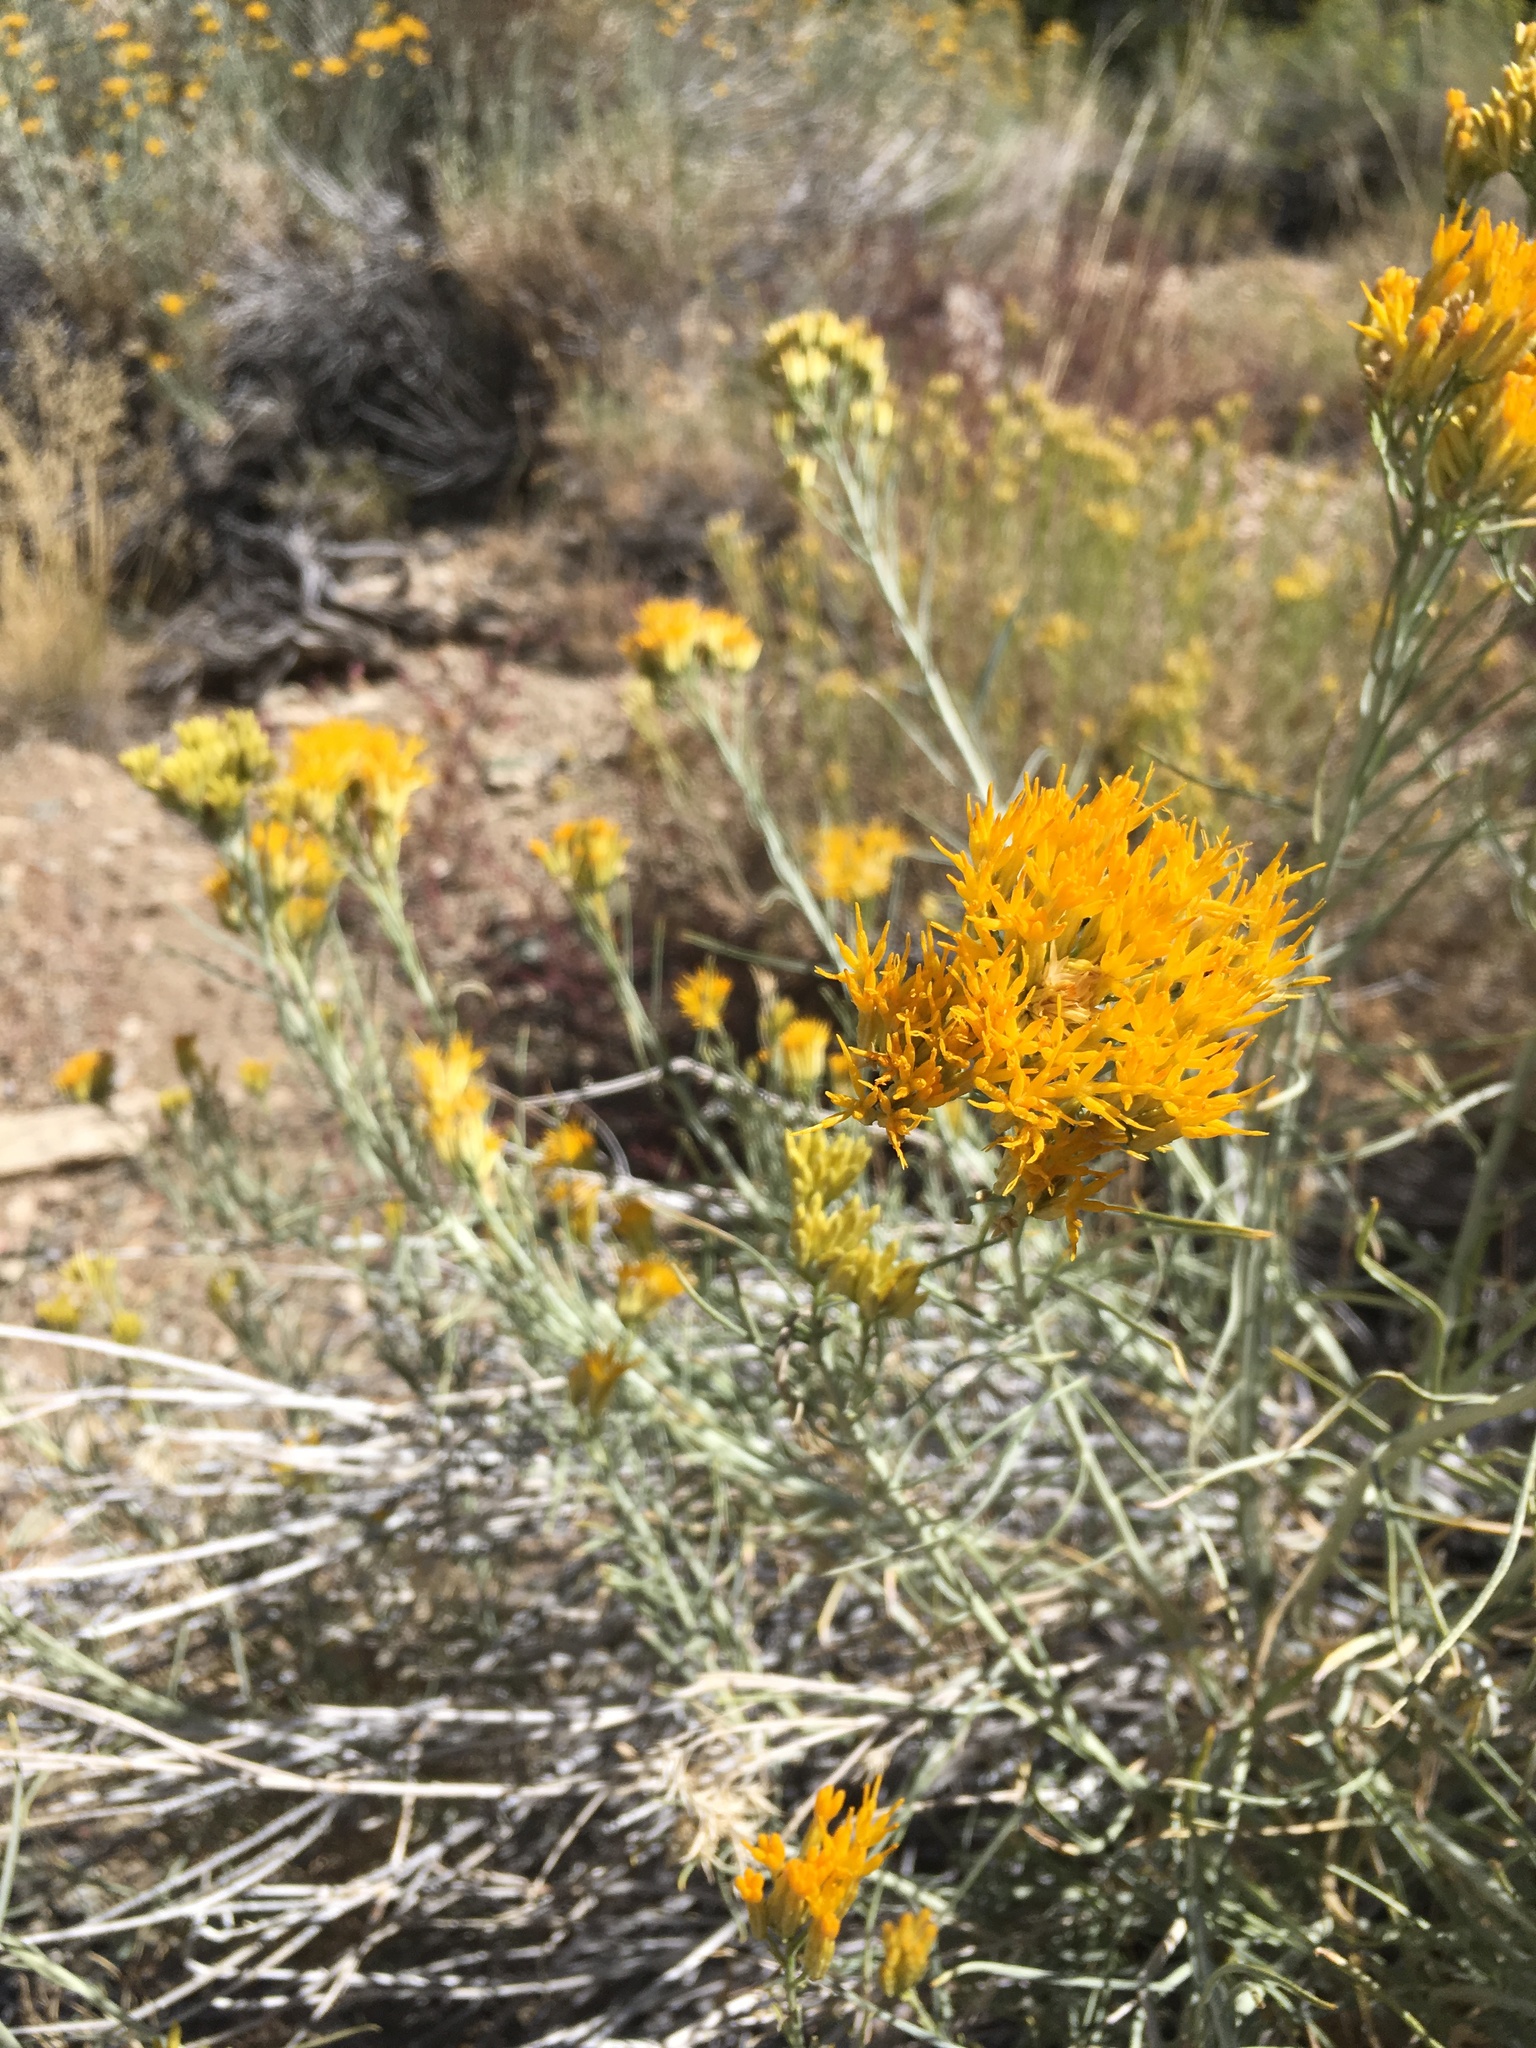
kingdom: Plantae
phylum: Tracheophyta
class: Magnoliopsida
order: Asterales
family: Asteraceae
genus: Ericameria
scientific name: Ericameria nauseosa
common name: Rubber rabbitbrush
